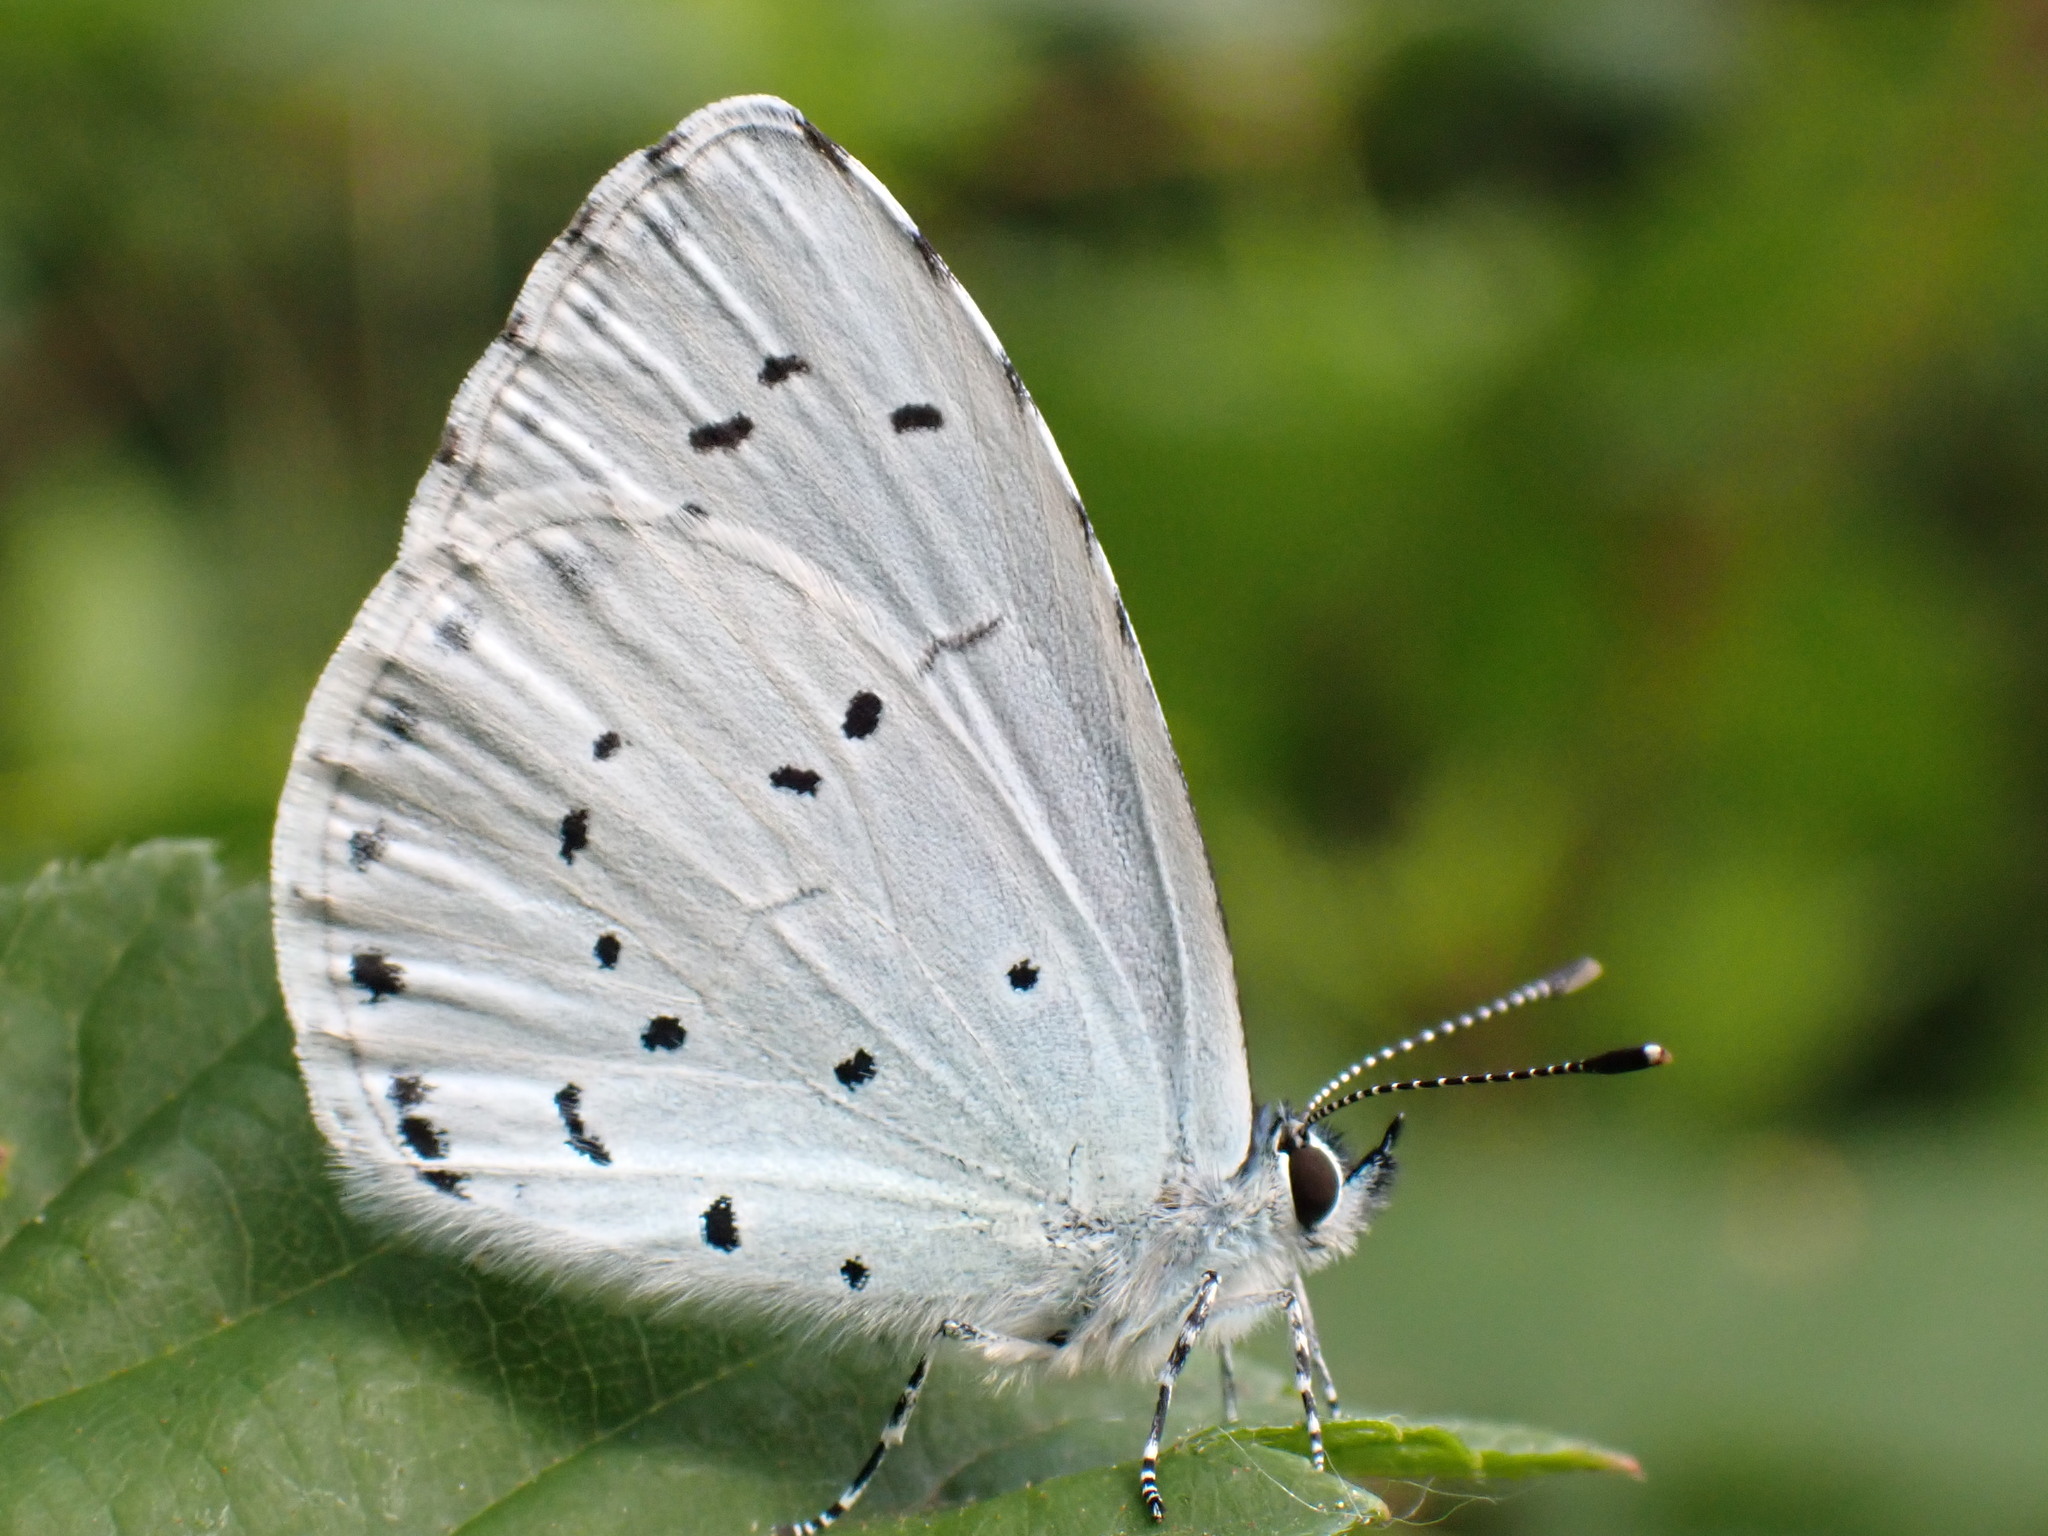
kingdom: Animalia
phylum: Arthropoda
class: Insecta
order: Lepidoptera
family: Lycaenidae
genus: Celastrina
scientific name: Celastrina argiolus
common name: Holly blue
